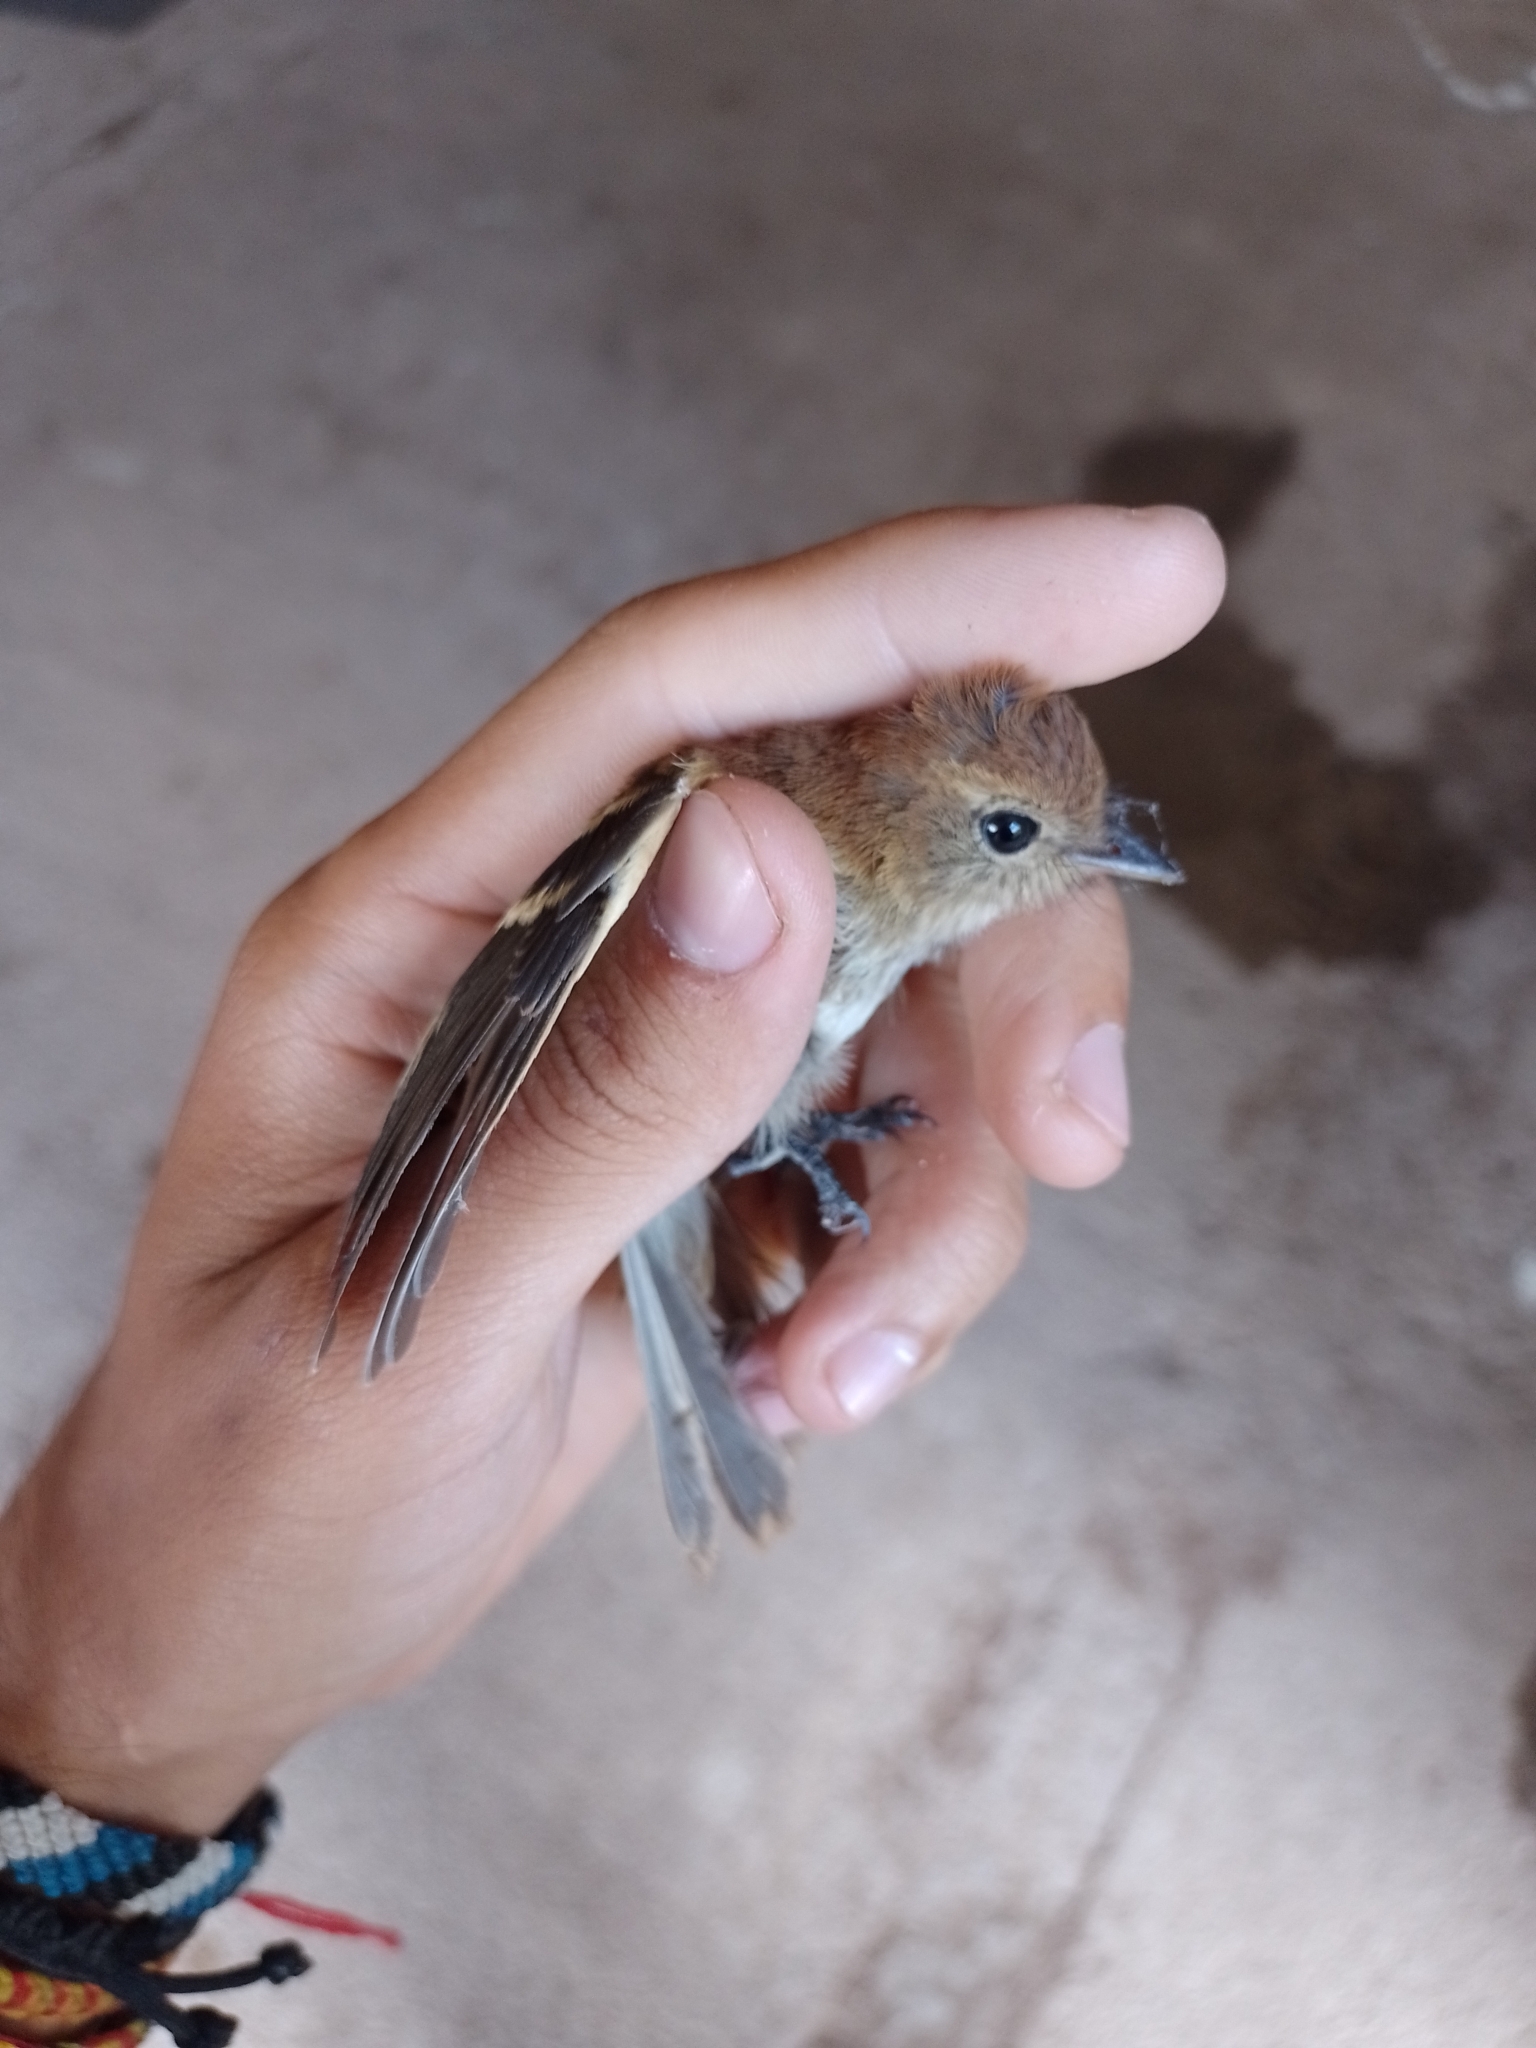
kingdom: Animalia
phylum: Chordata
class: Aves
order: Passeriformes
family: Tyrannidae
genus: Myiophobus
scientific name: Myiophobus fasciatus
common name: Bran-colored flycatcher
